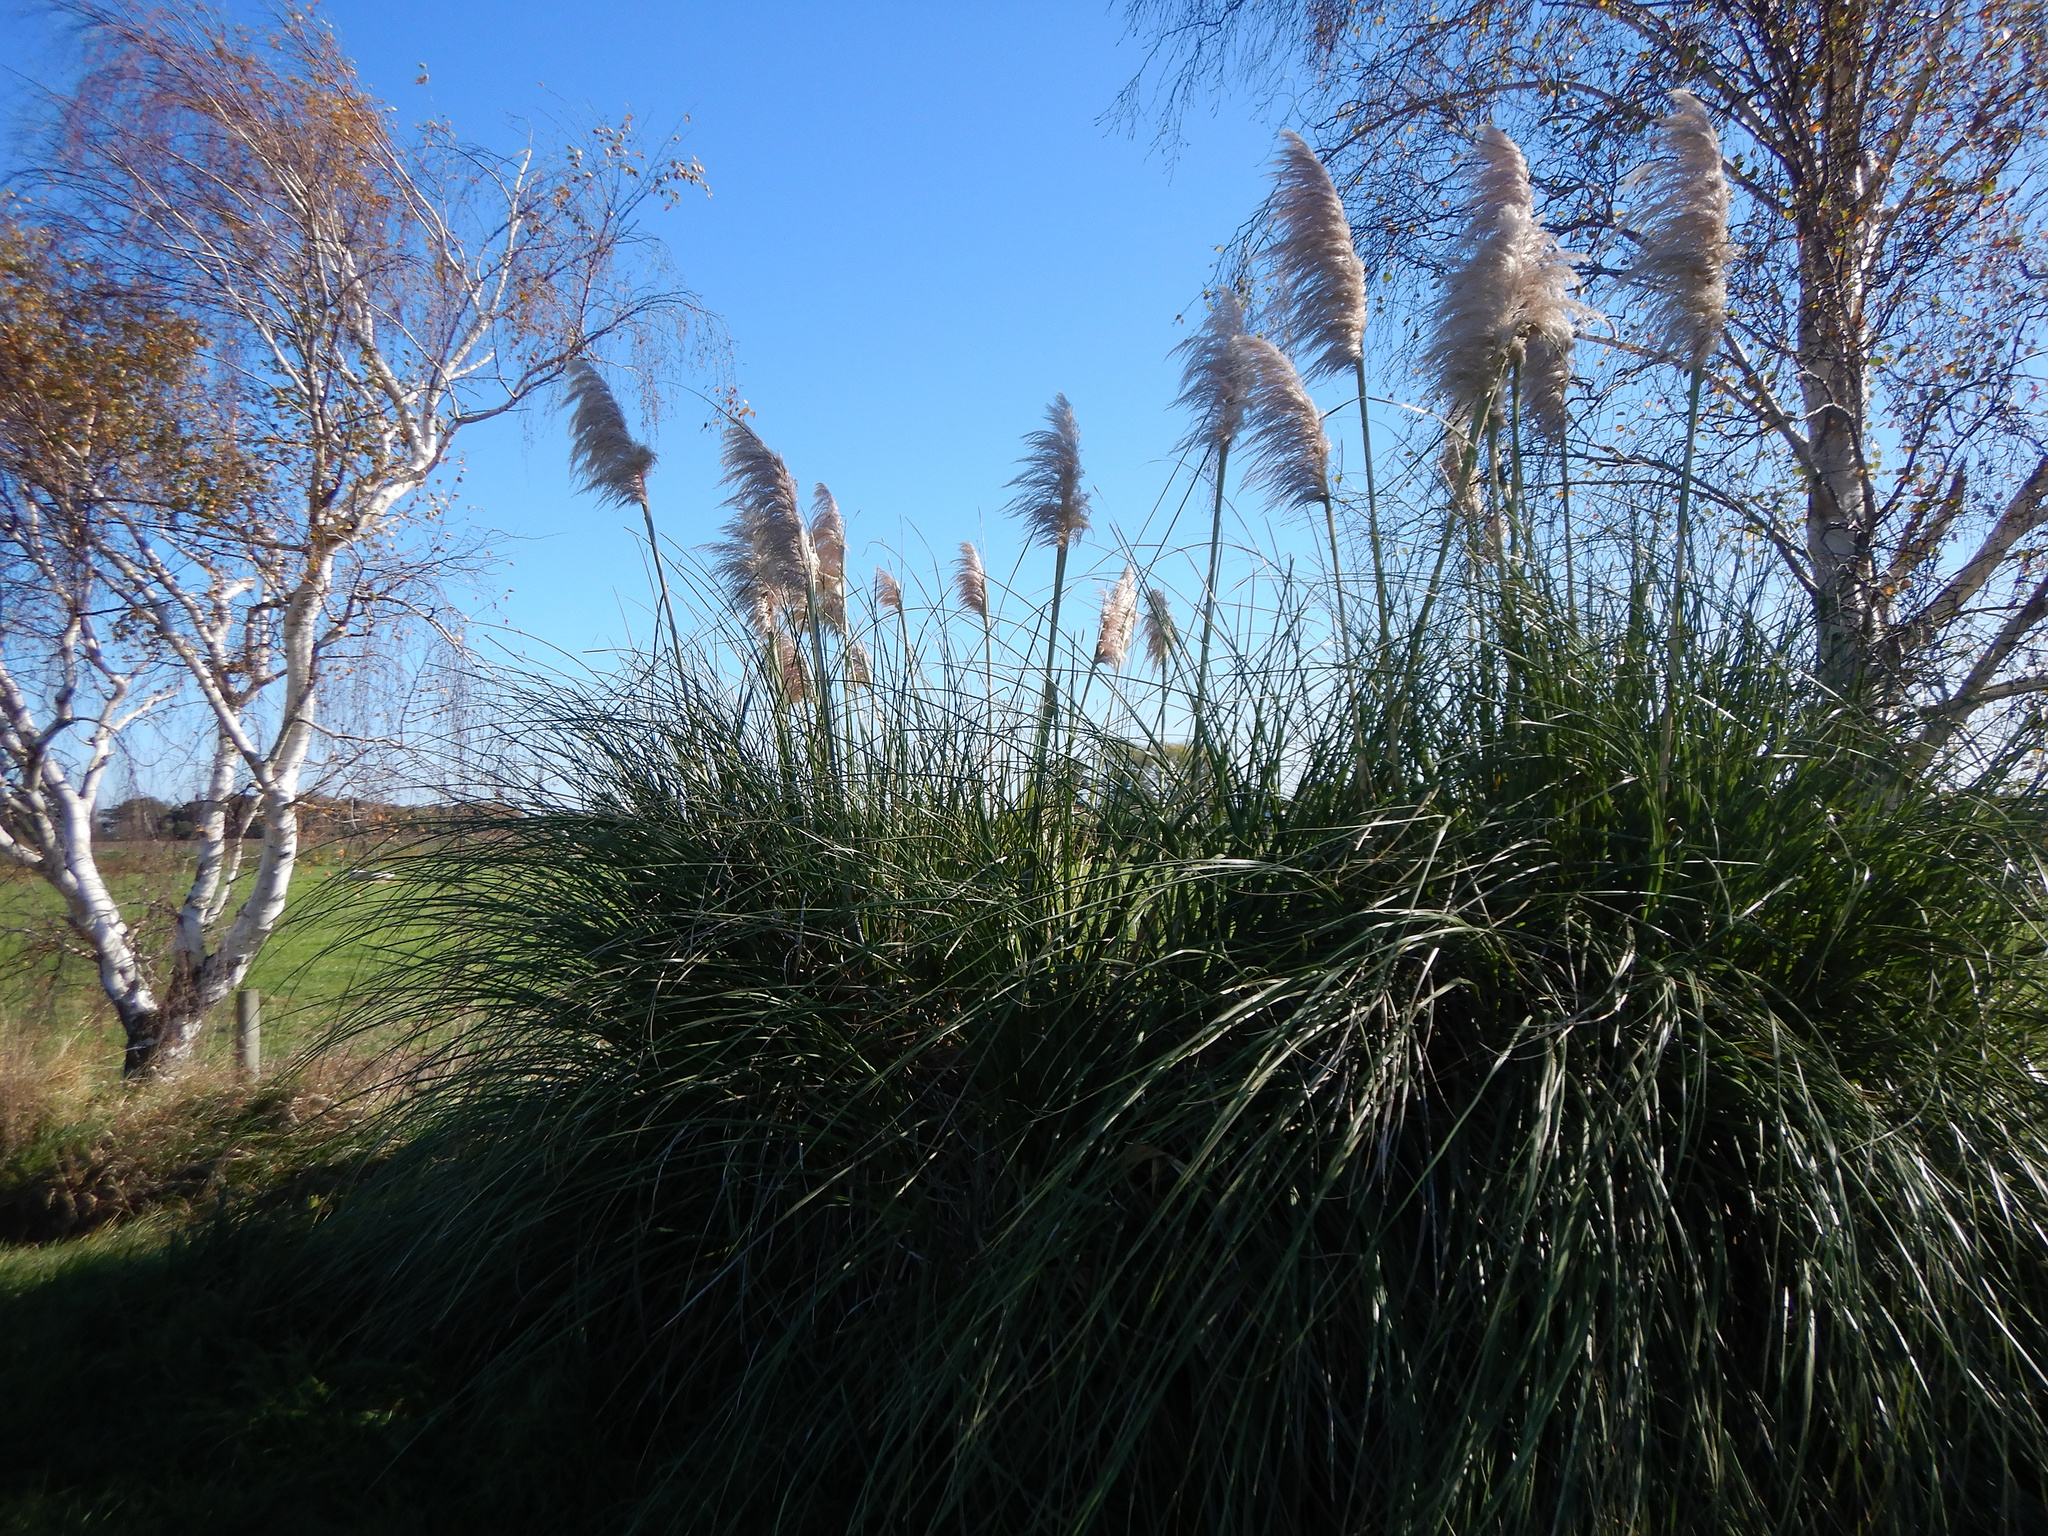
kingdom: Plantae
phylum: Tracheophyta
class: Liliopsida
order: Poales
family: Poaceae
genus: Cortaderia
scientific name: Cortaderia selloana
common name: Uruguayan pampas grass
